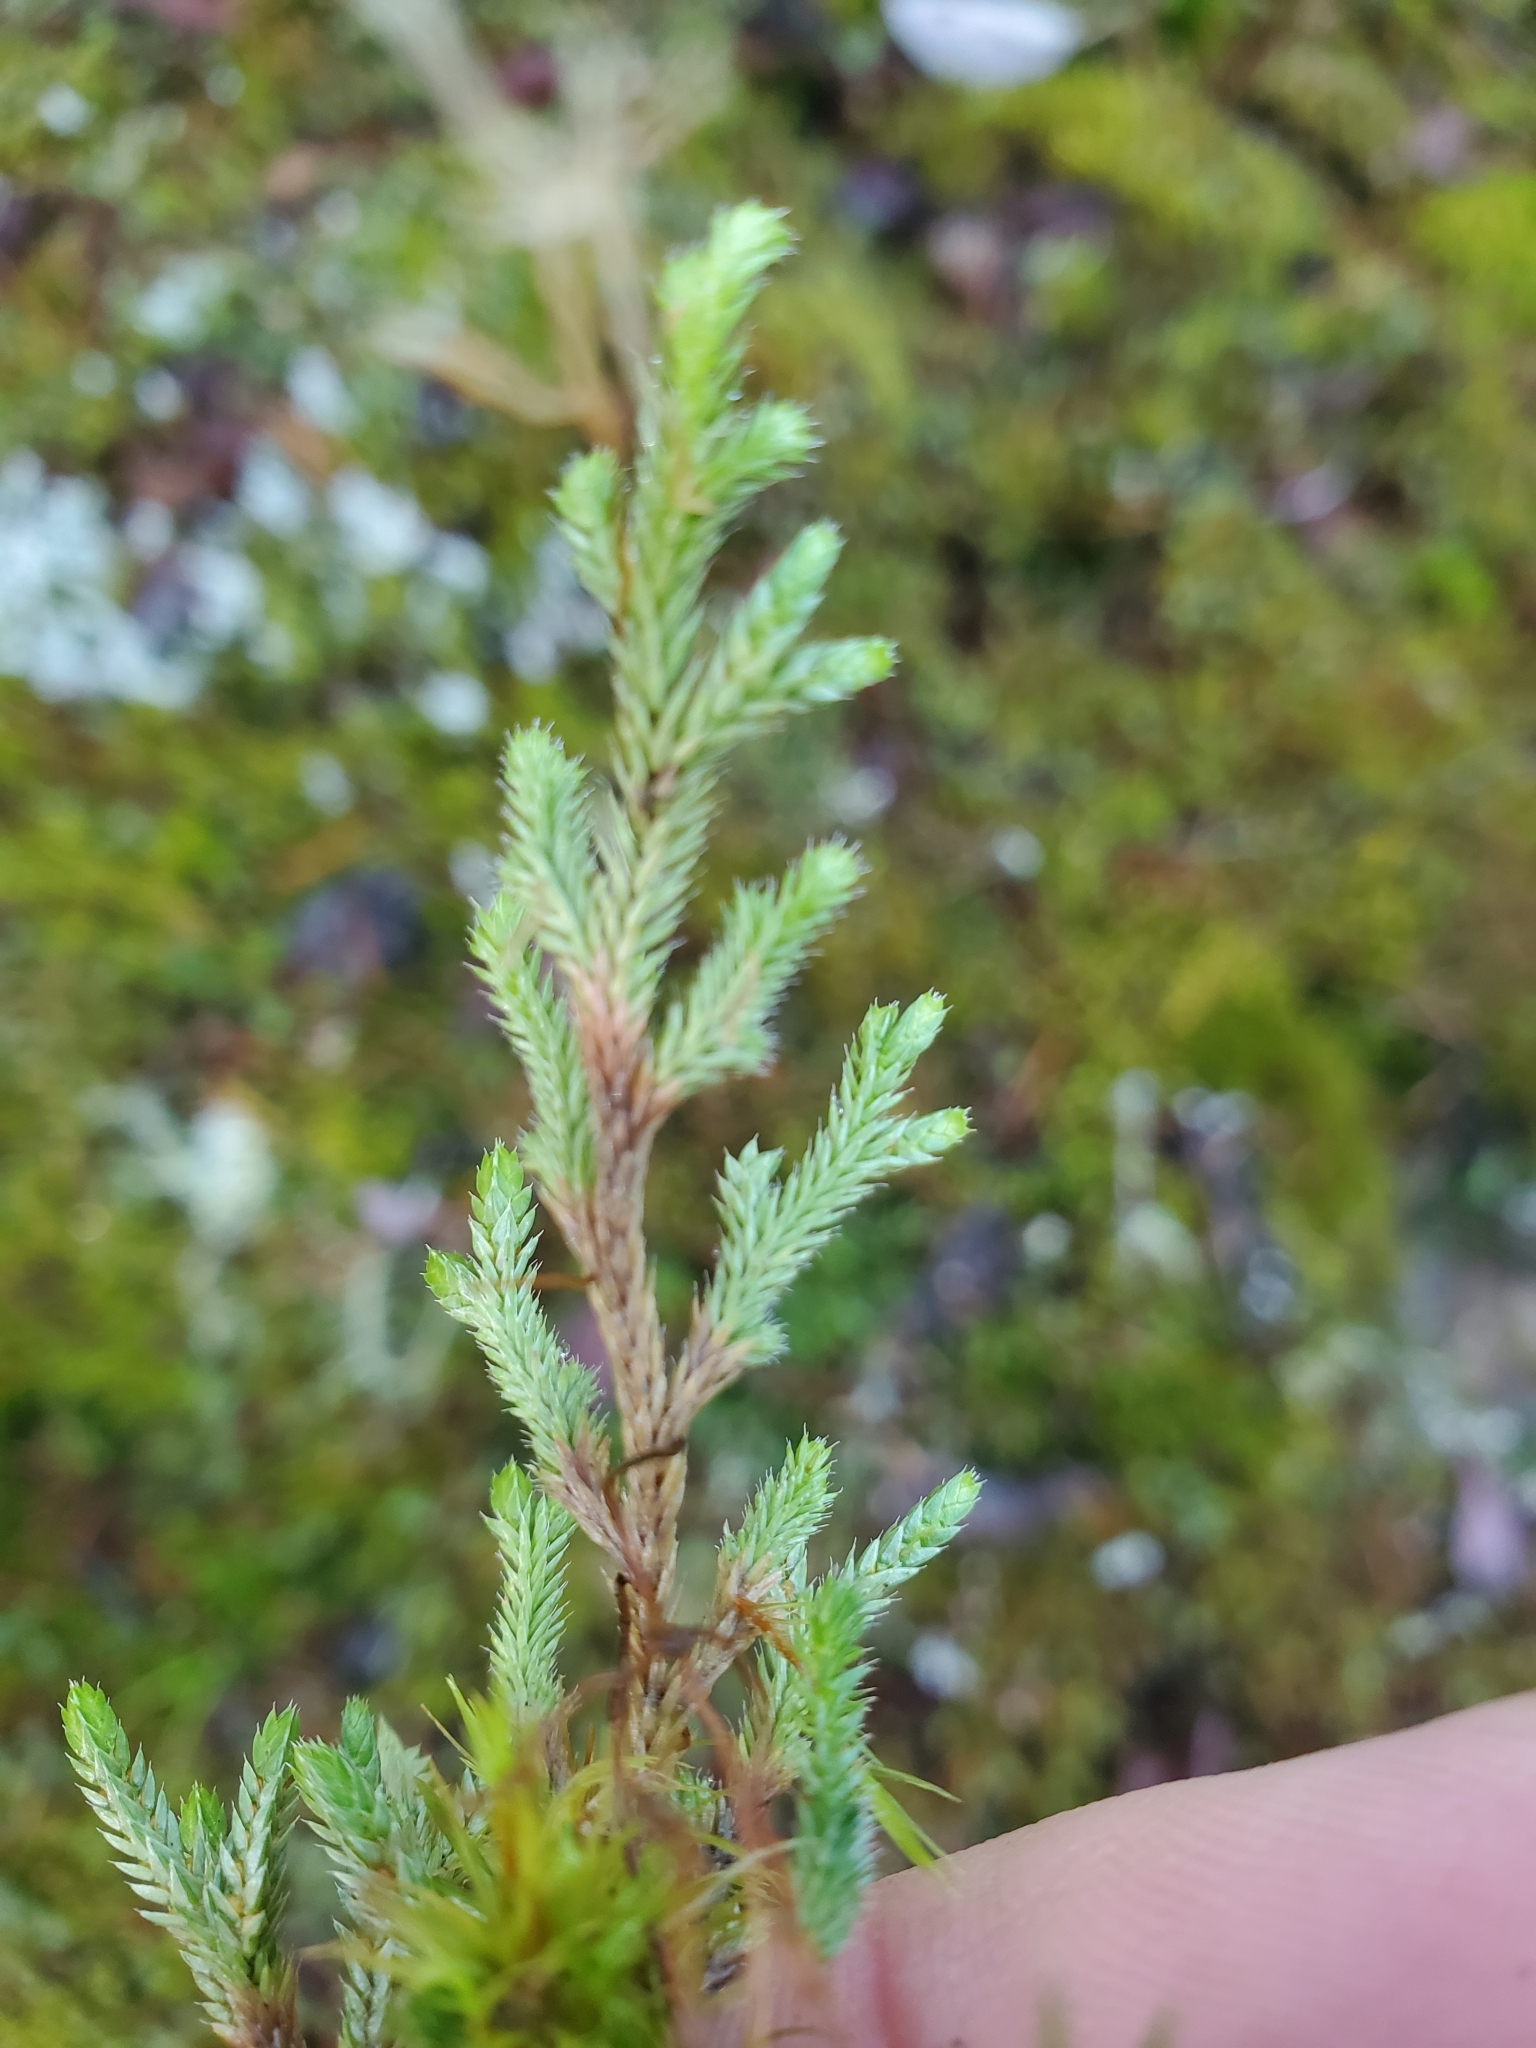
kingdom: Plantae
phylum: Tracheophyta
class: Lycopodiopsida
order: Selaginellales
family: Selaginellaceae
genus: Selaginella
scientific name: Selaginella wallacei
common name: Wallace's selaginella
